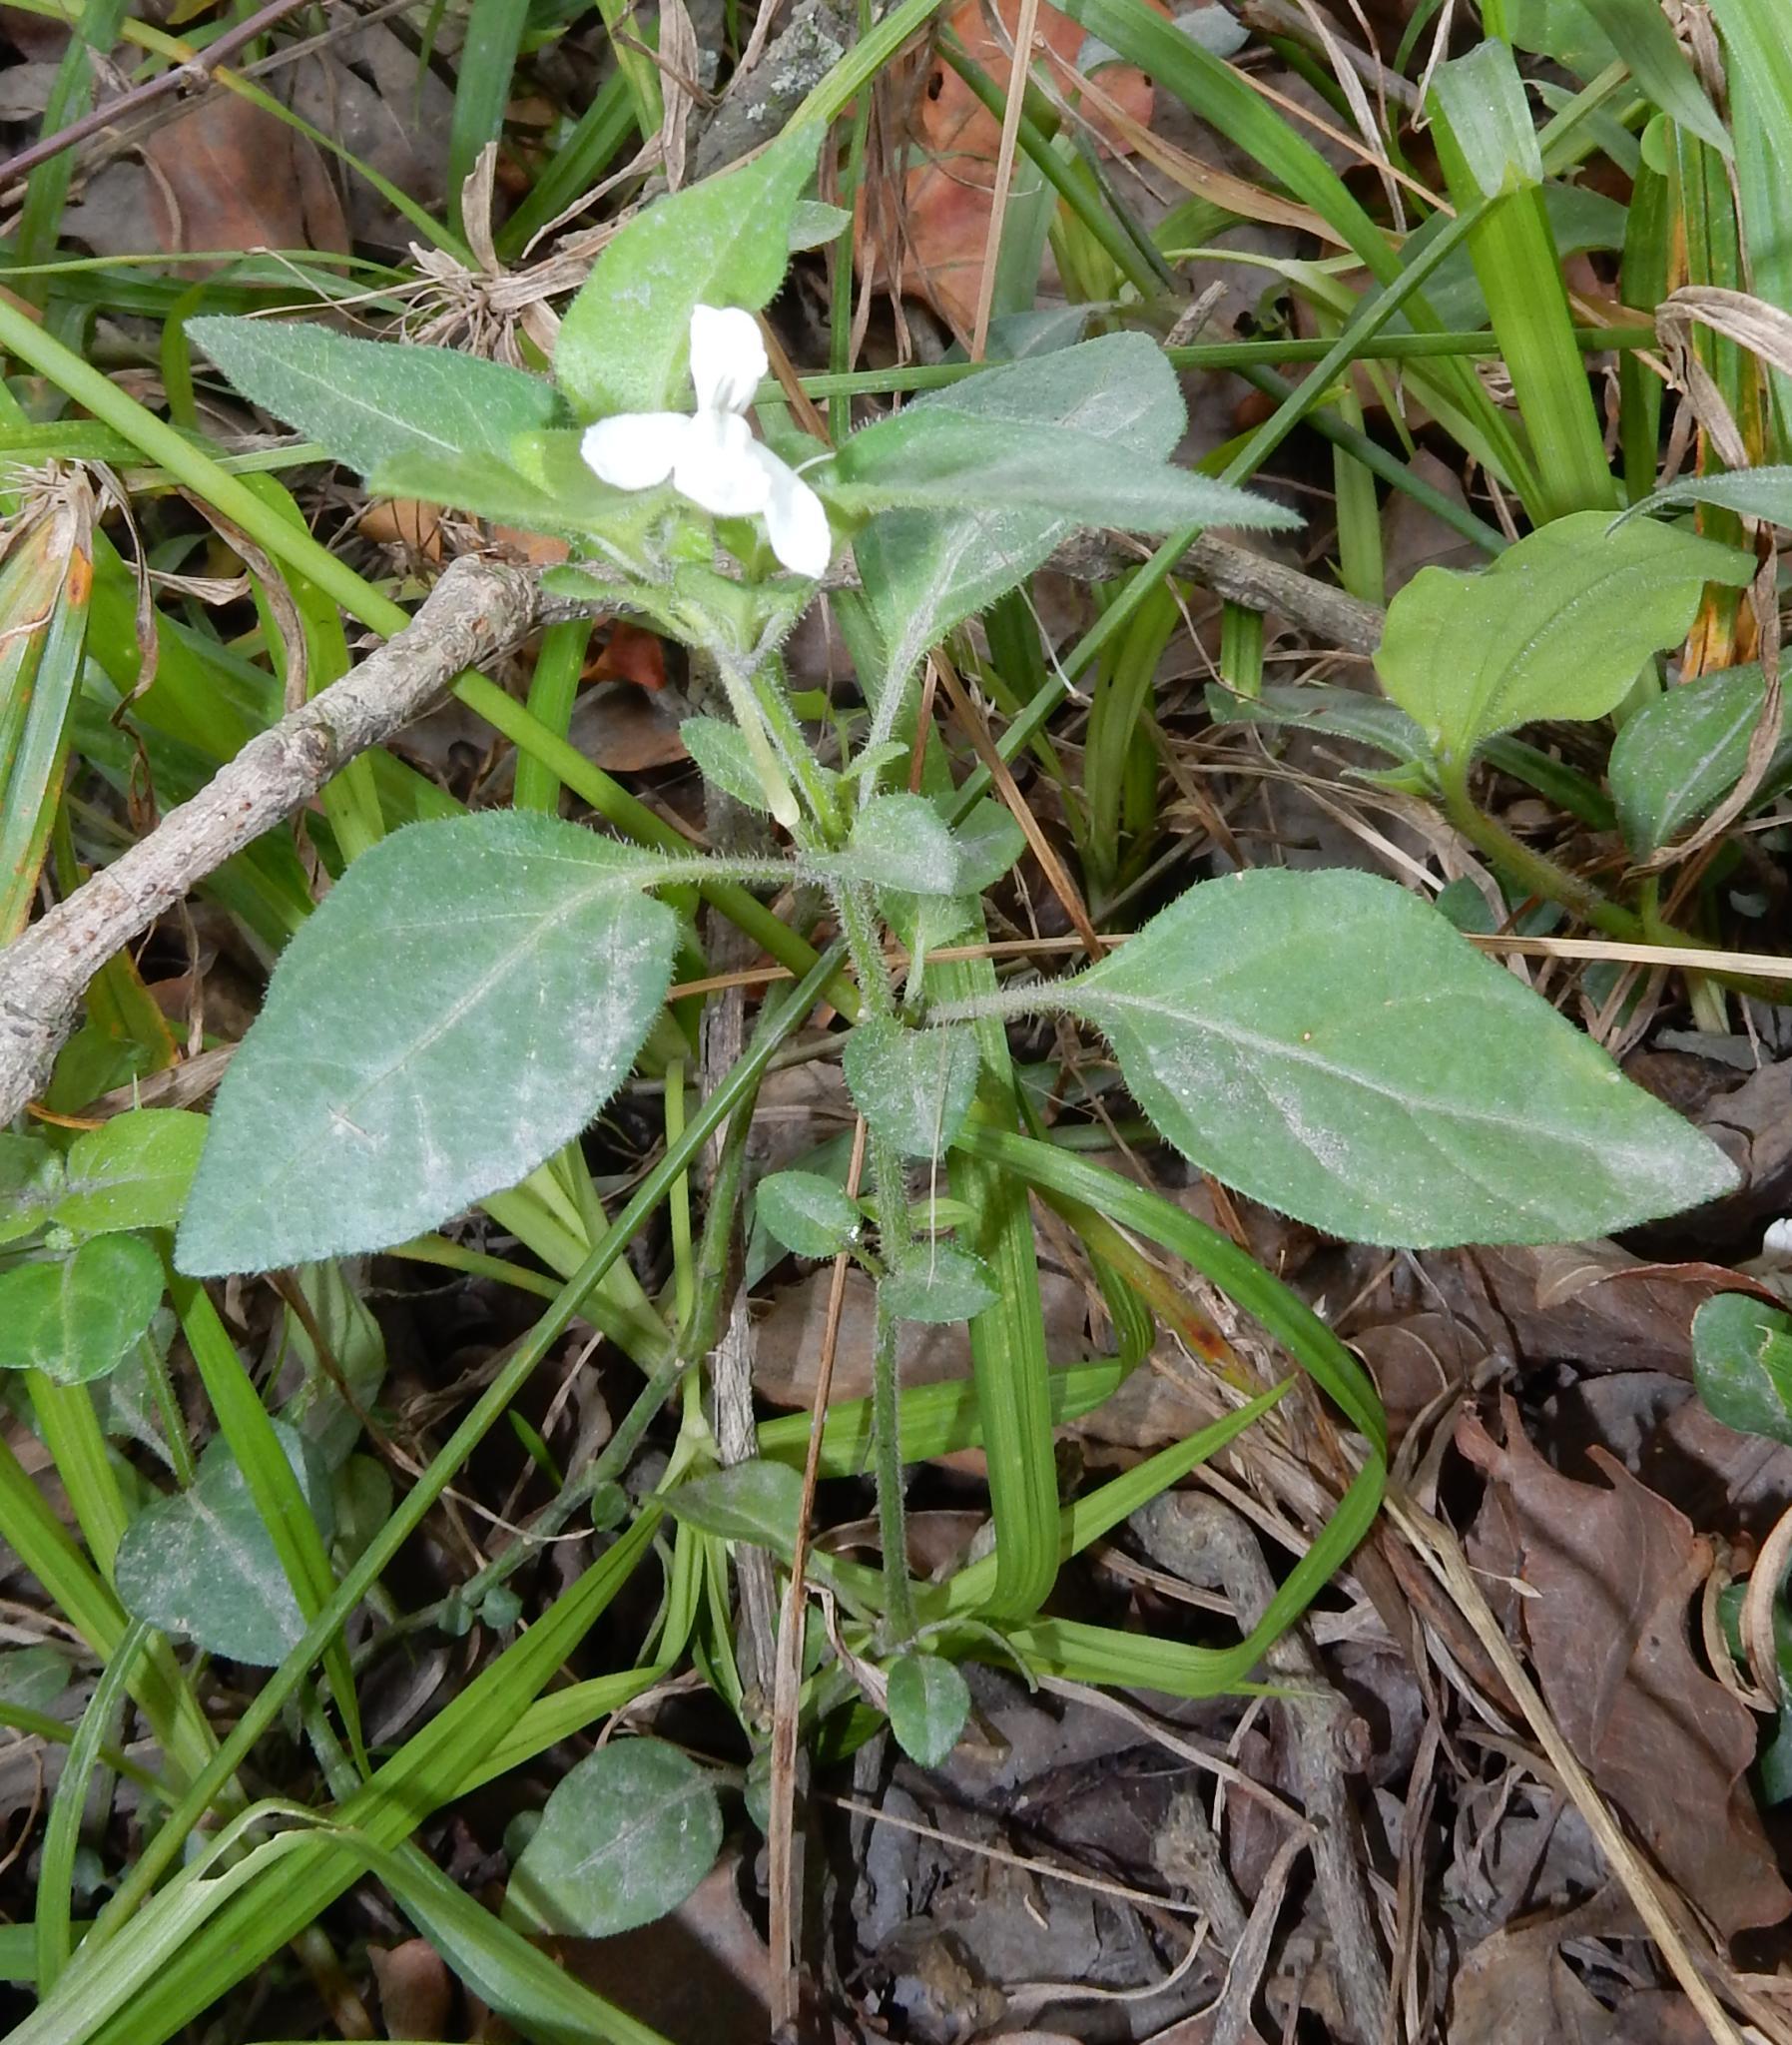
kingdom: Plantae
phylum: Tracheophyta
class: Magnoliopsida
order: Lamiales
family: Acanthaceae
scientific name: Acanthaceae
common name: Acanthaceae
